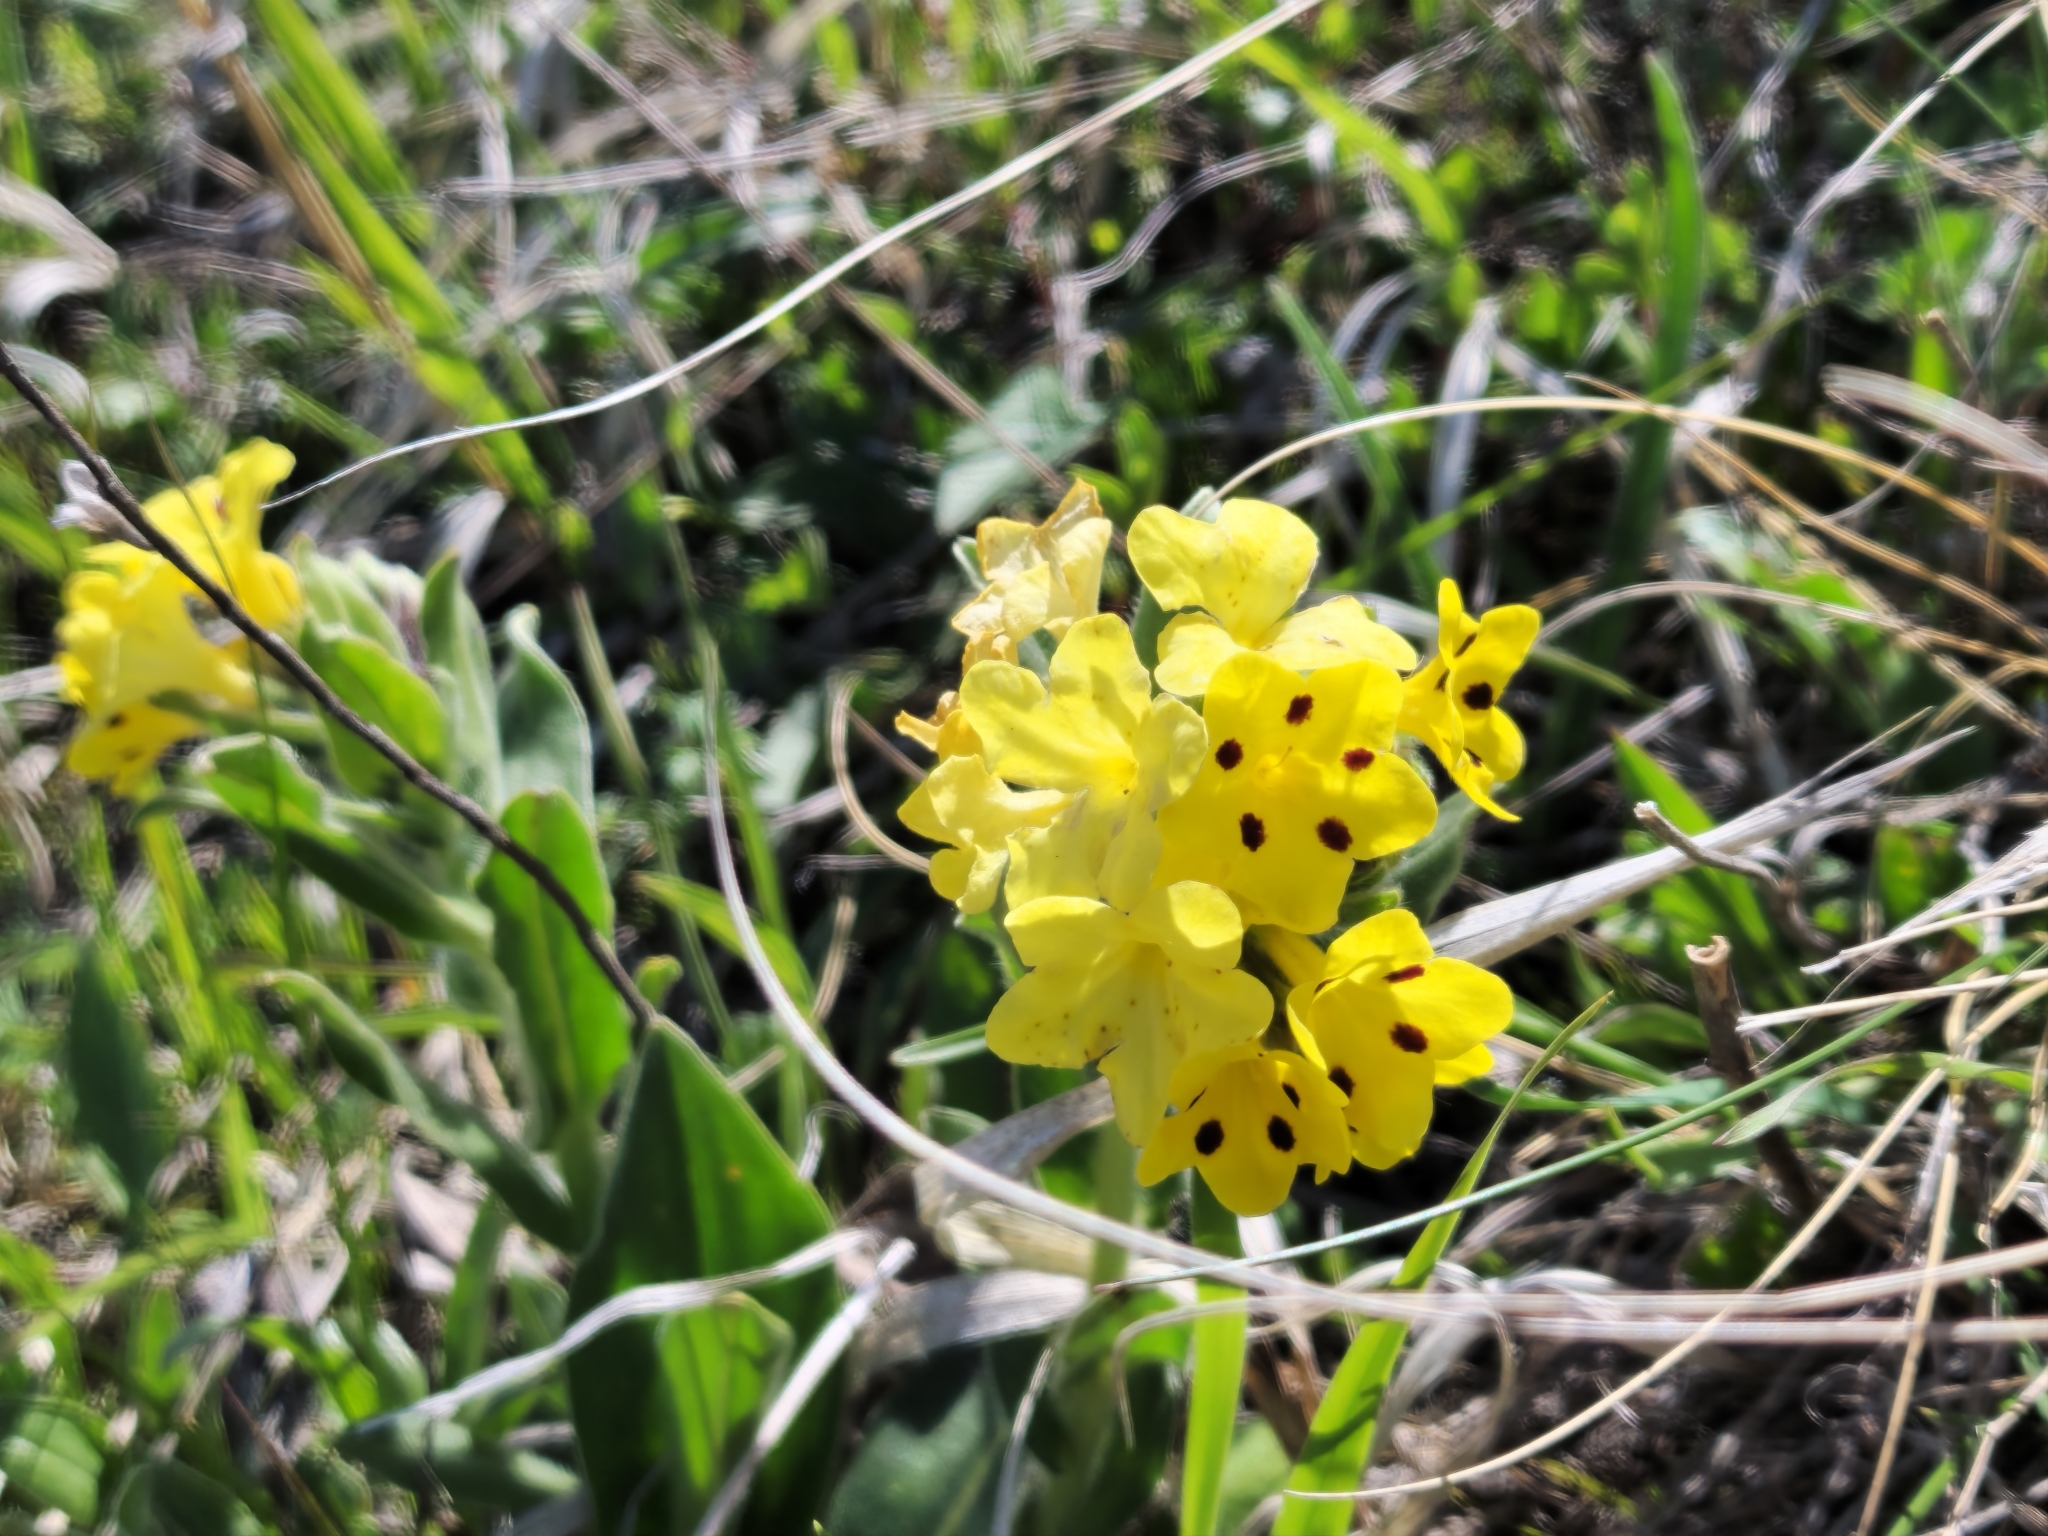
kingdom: Plantae
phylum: Tracheophyta
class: Magnoliopsida
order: Boraginales
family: Boraginaceae
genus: Huynhia
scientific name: Huynhia pulchra
